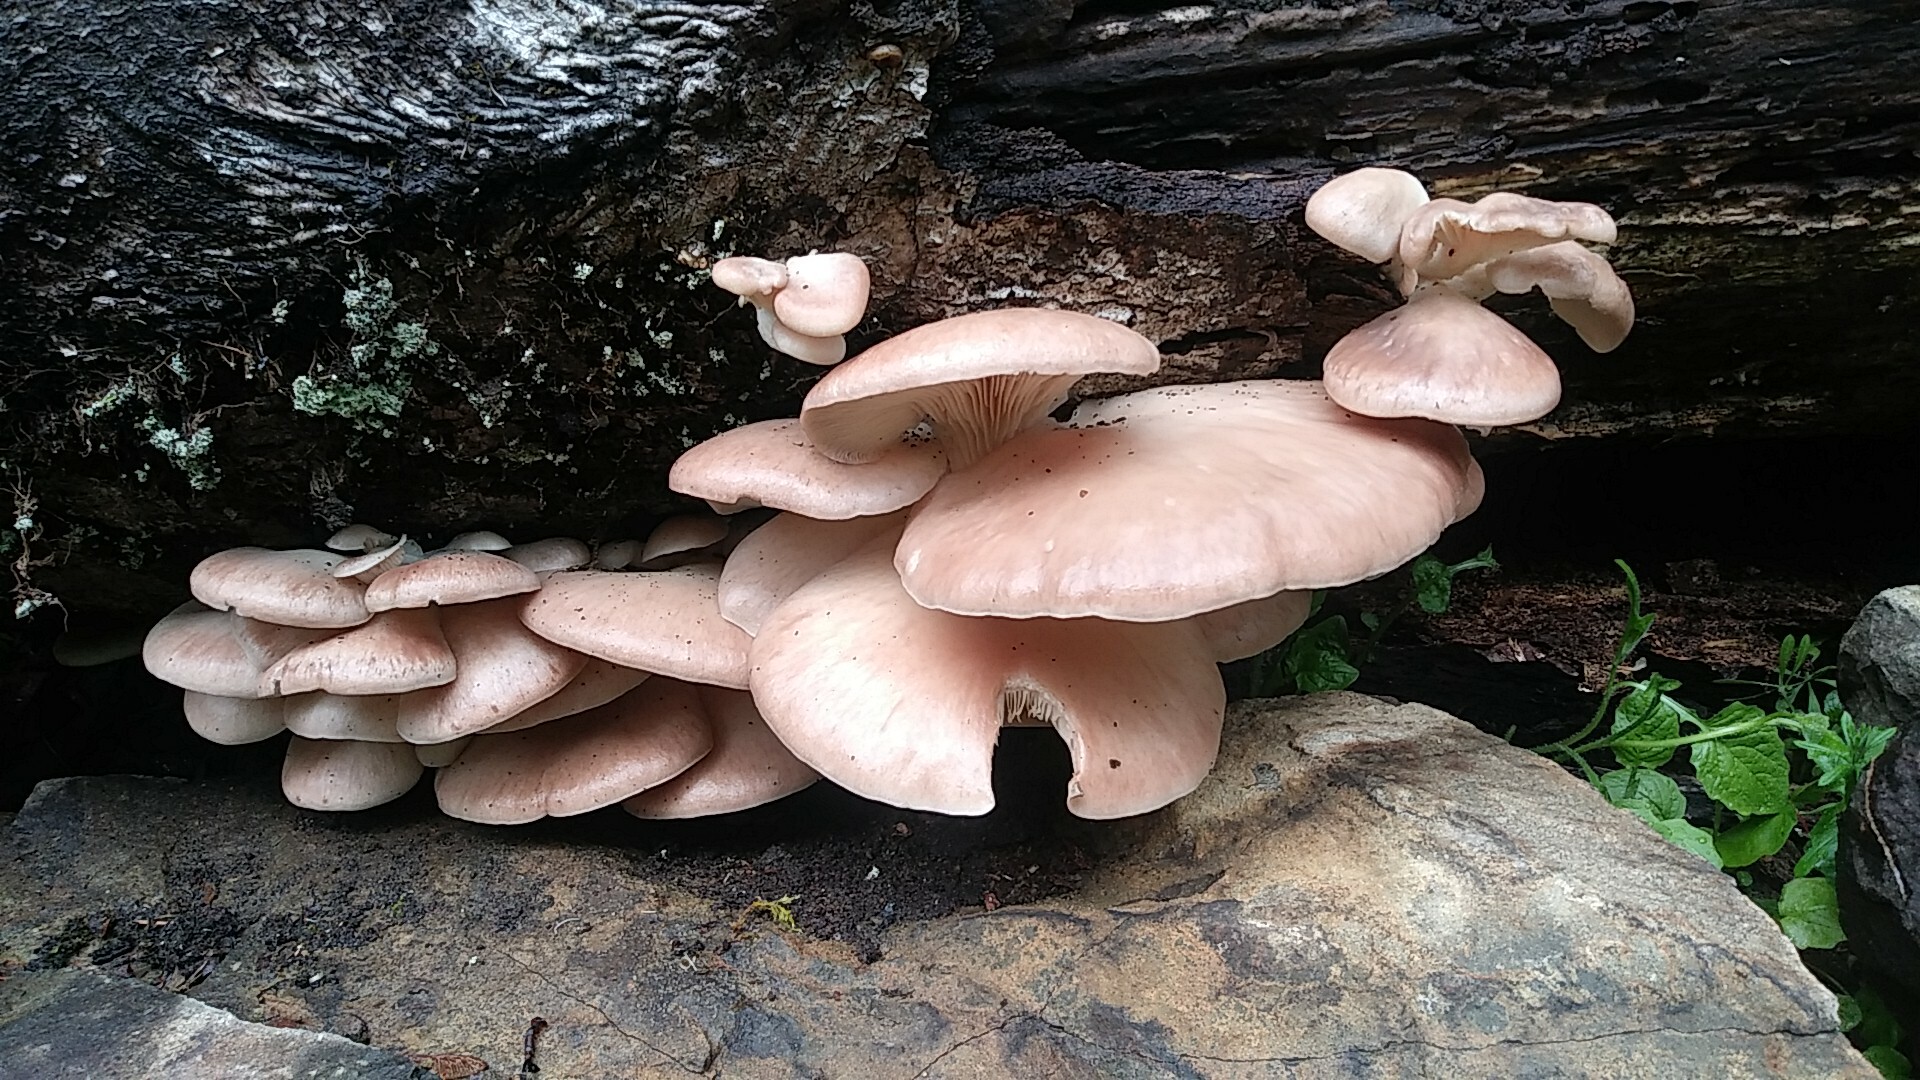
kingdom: Fungi
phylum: Basidiomycota
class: Agaricomycetes
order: Agaricales
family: Pleurotaceae
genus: Pleurotus
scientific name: Pleurotus ostreatus
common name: Oyster mushroom
